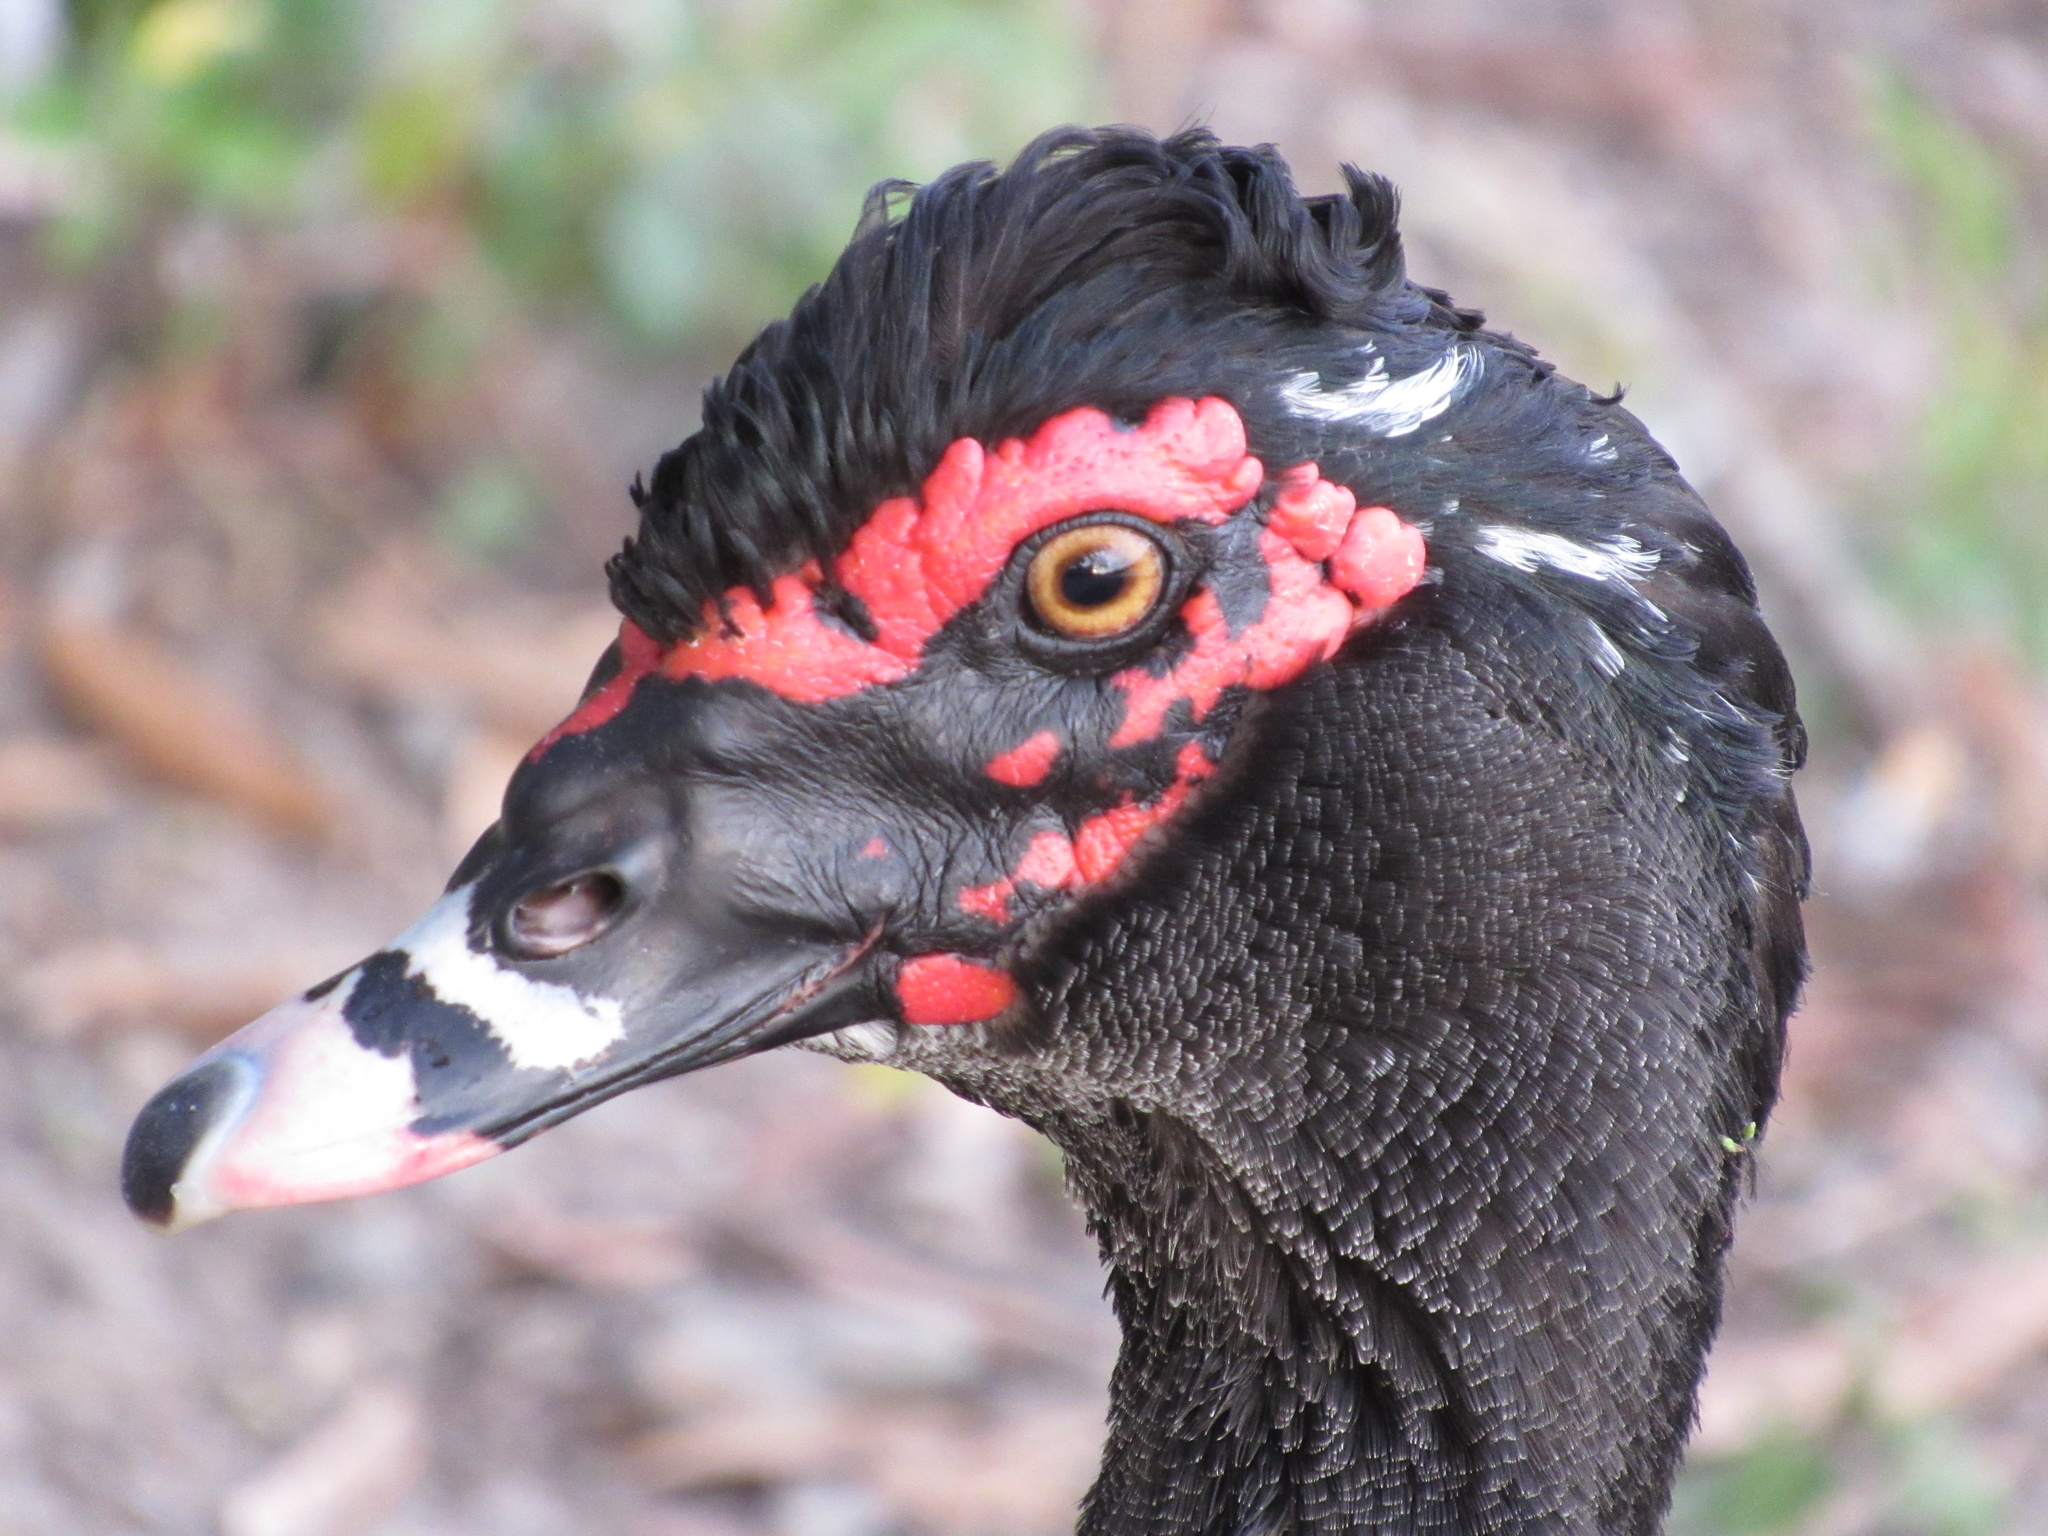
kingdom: Animalia
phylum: Chordata
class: Aves
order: Anseriformes
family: Anatidae
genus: Cairina
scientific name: Cairina moschata
